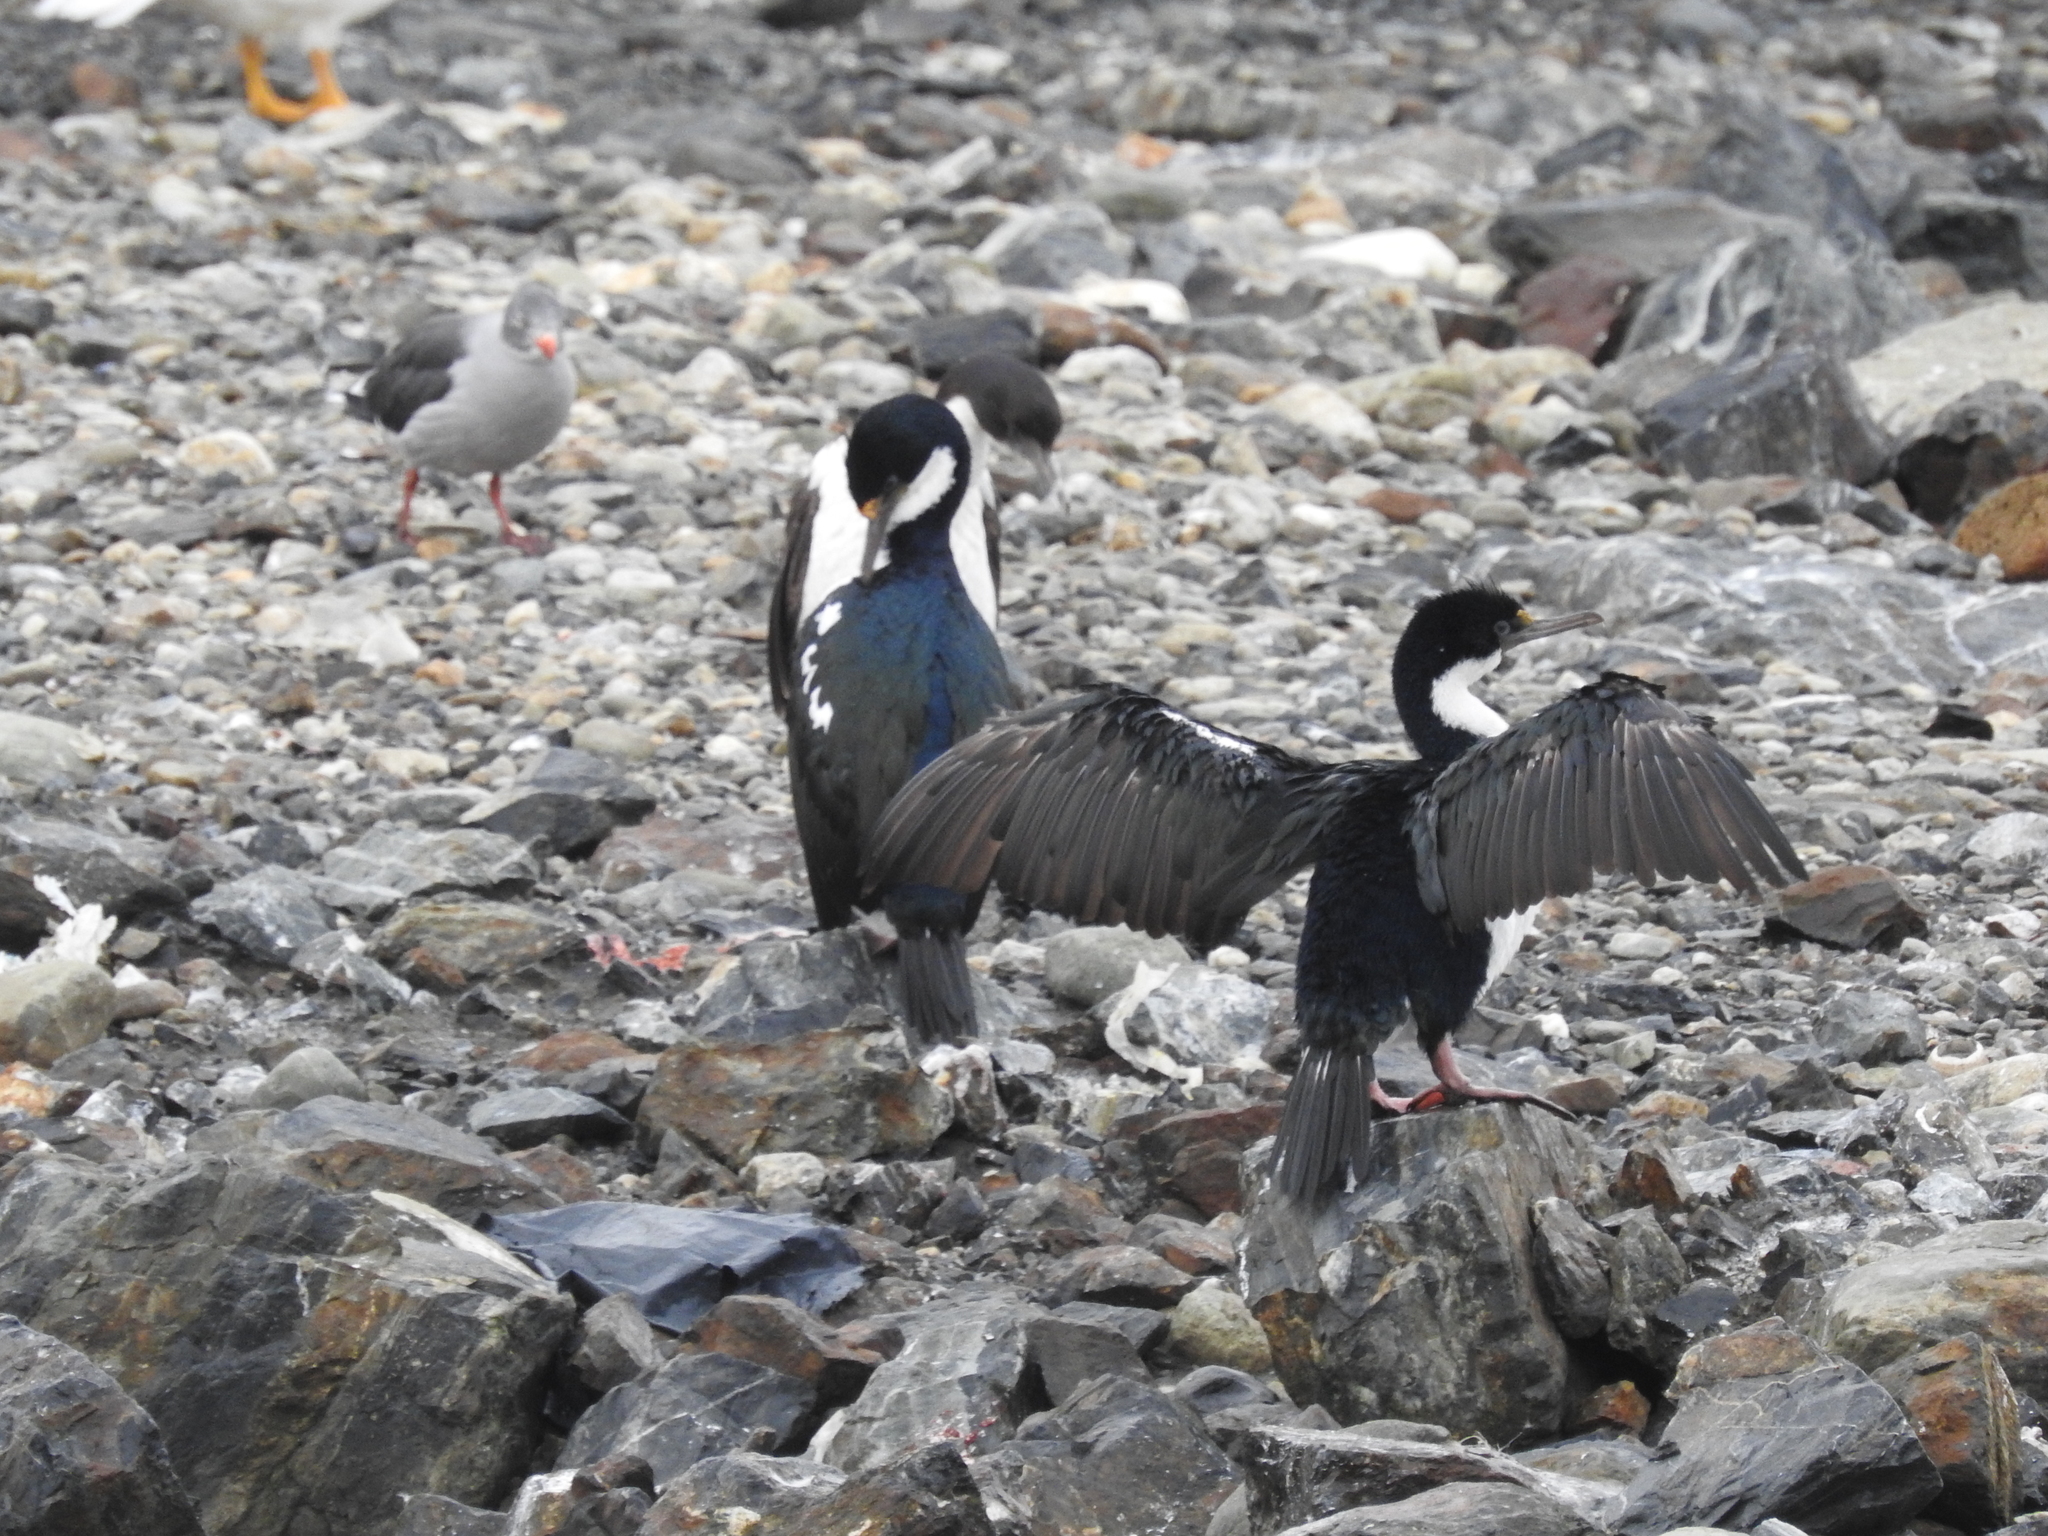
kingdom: Animalia
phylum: Chordata
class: Aves
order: Suliformes
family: Phalacrocoracidae
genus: Leucocarbo
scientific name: Leucocarbo albiventer
